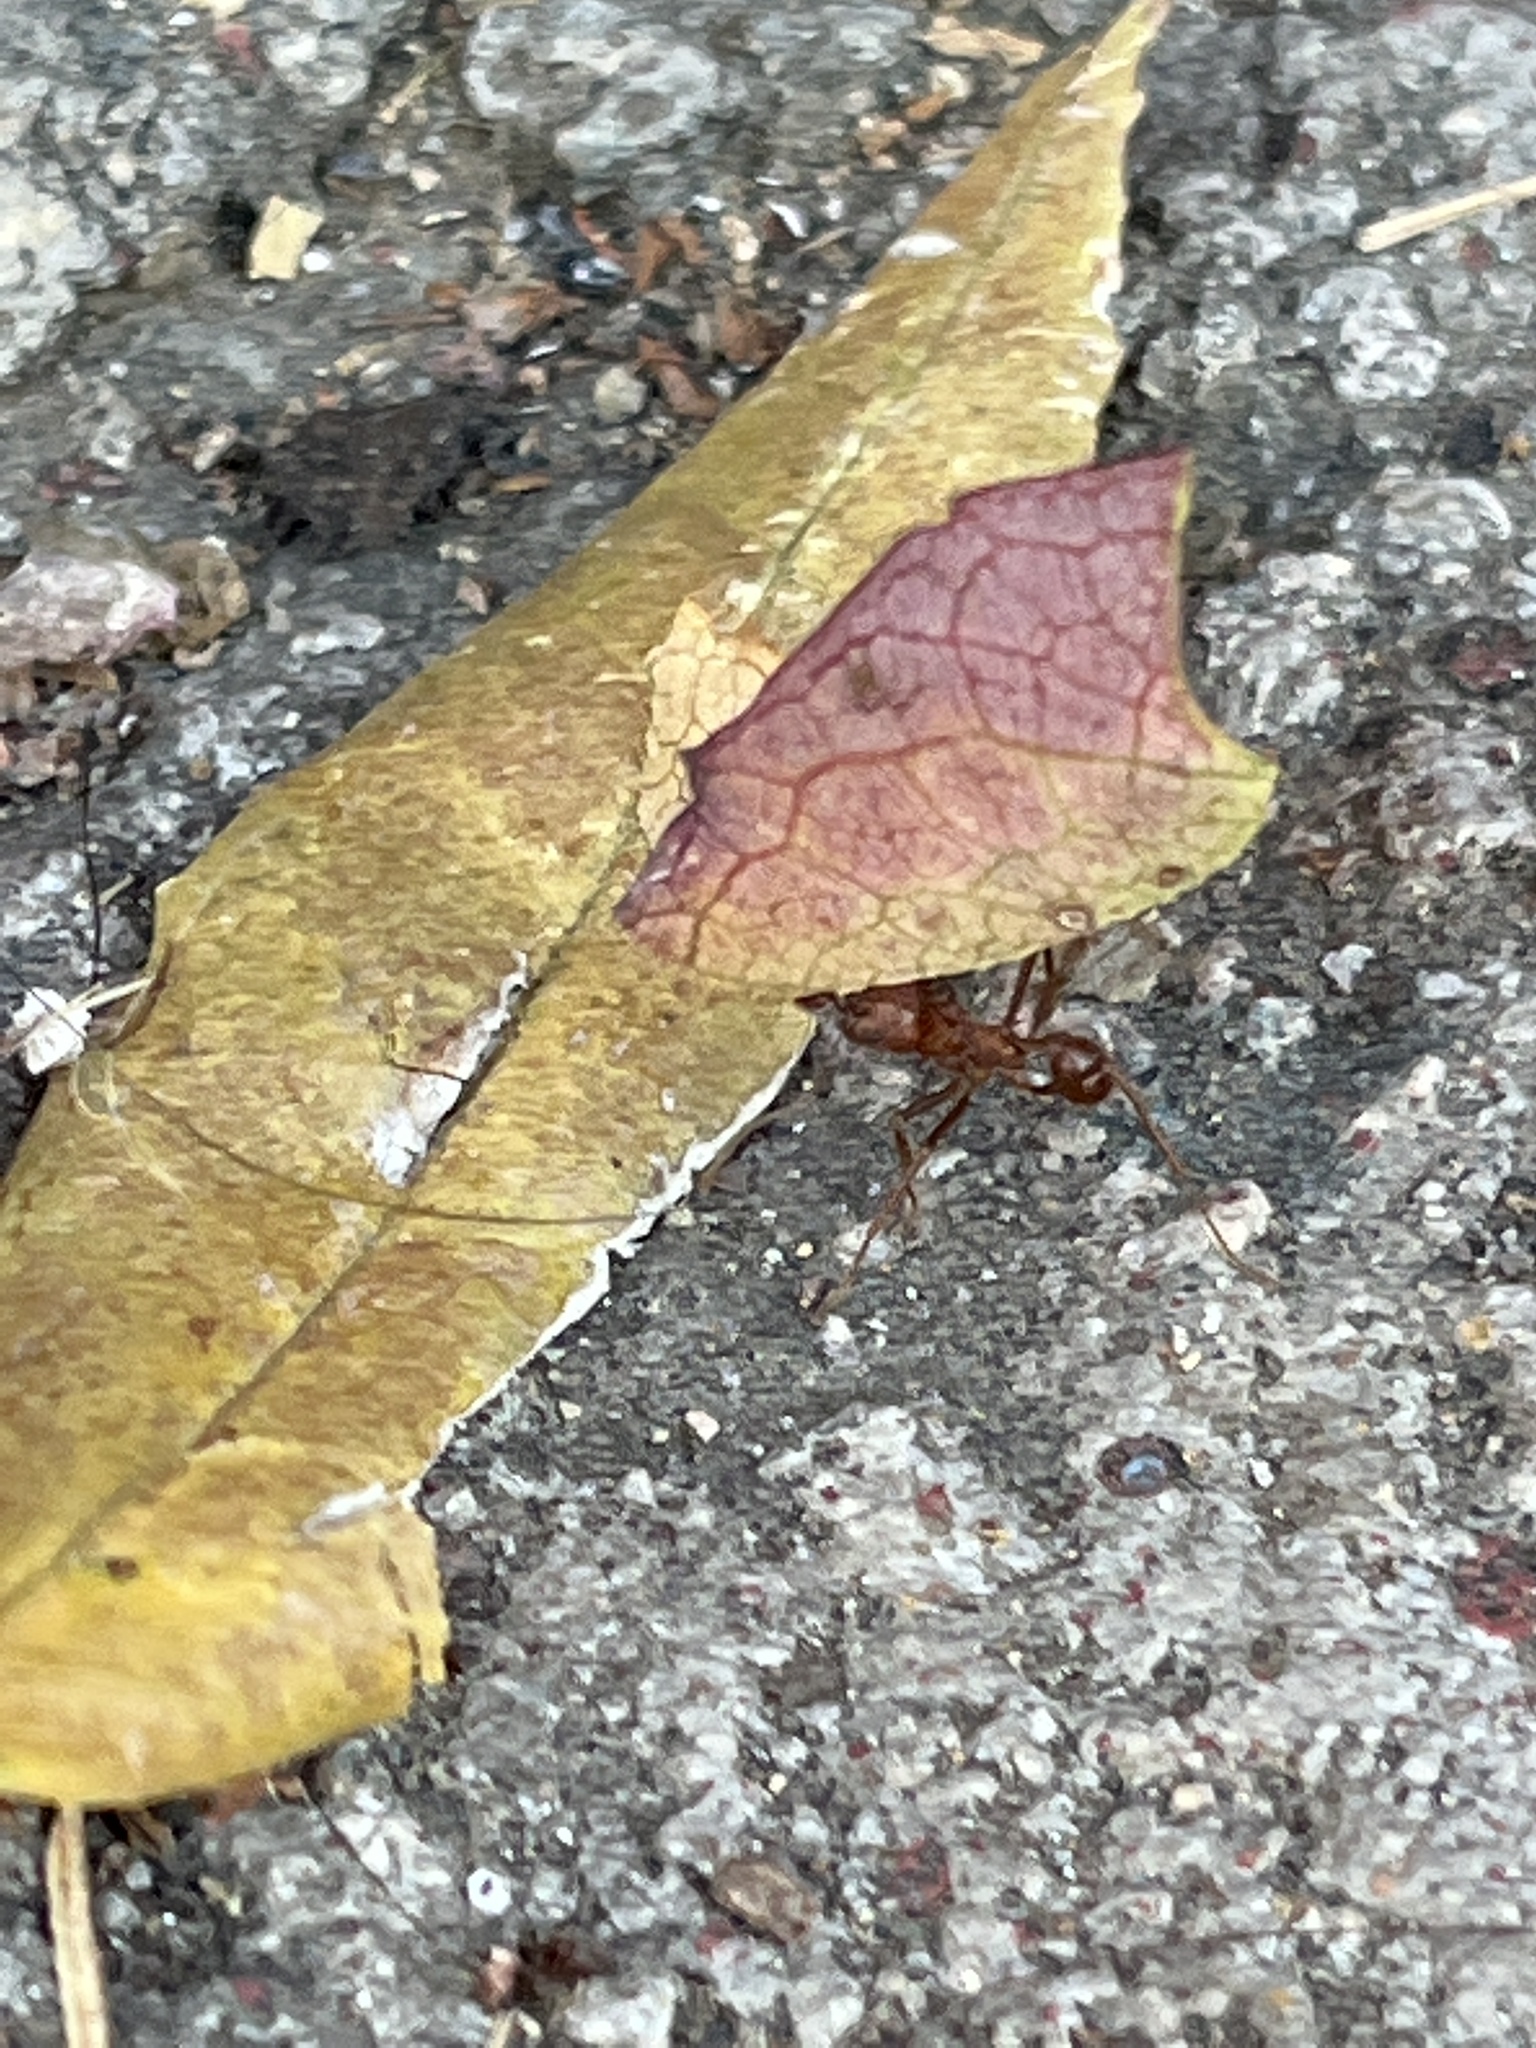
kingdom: Animalia
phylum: Arthropoda
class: Insecta
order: Hymenoptera
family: Formicidae
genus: Atta
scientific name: Atta mexicana
